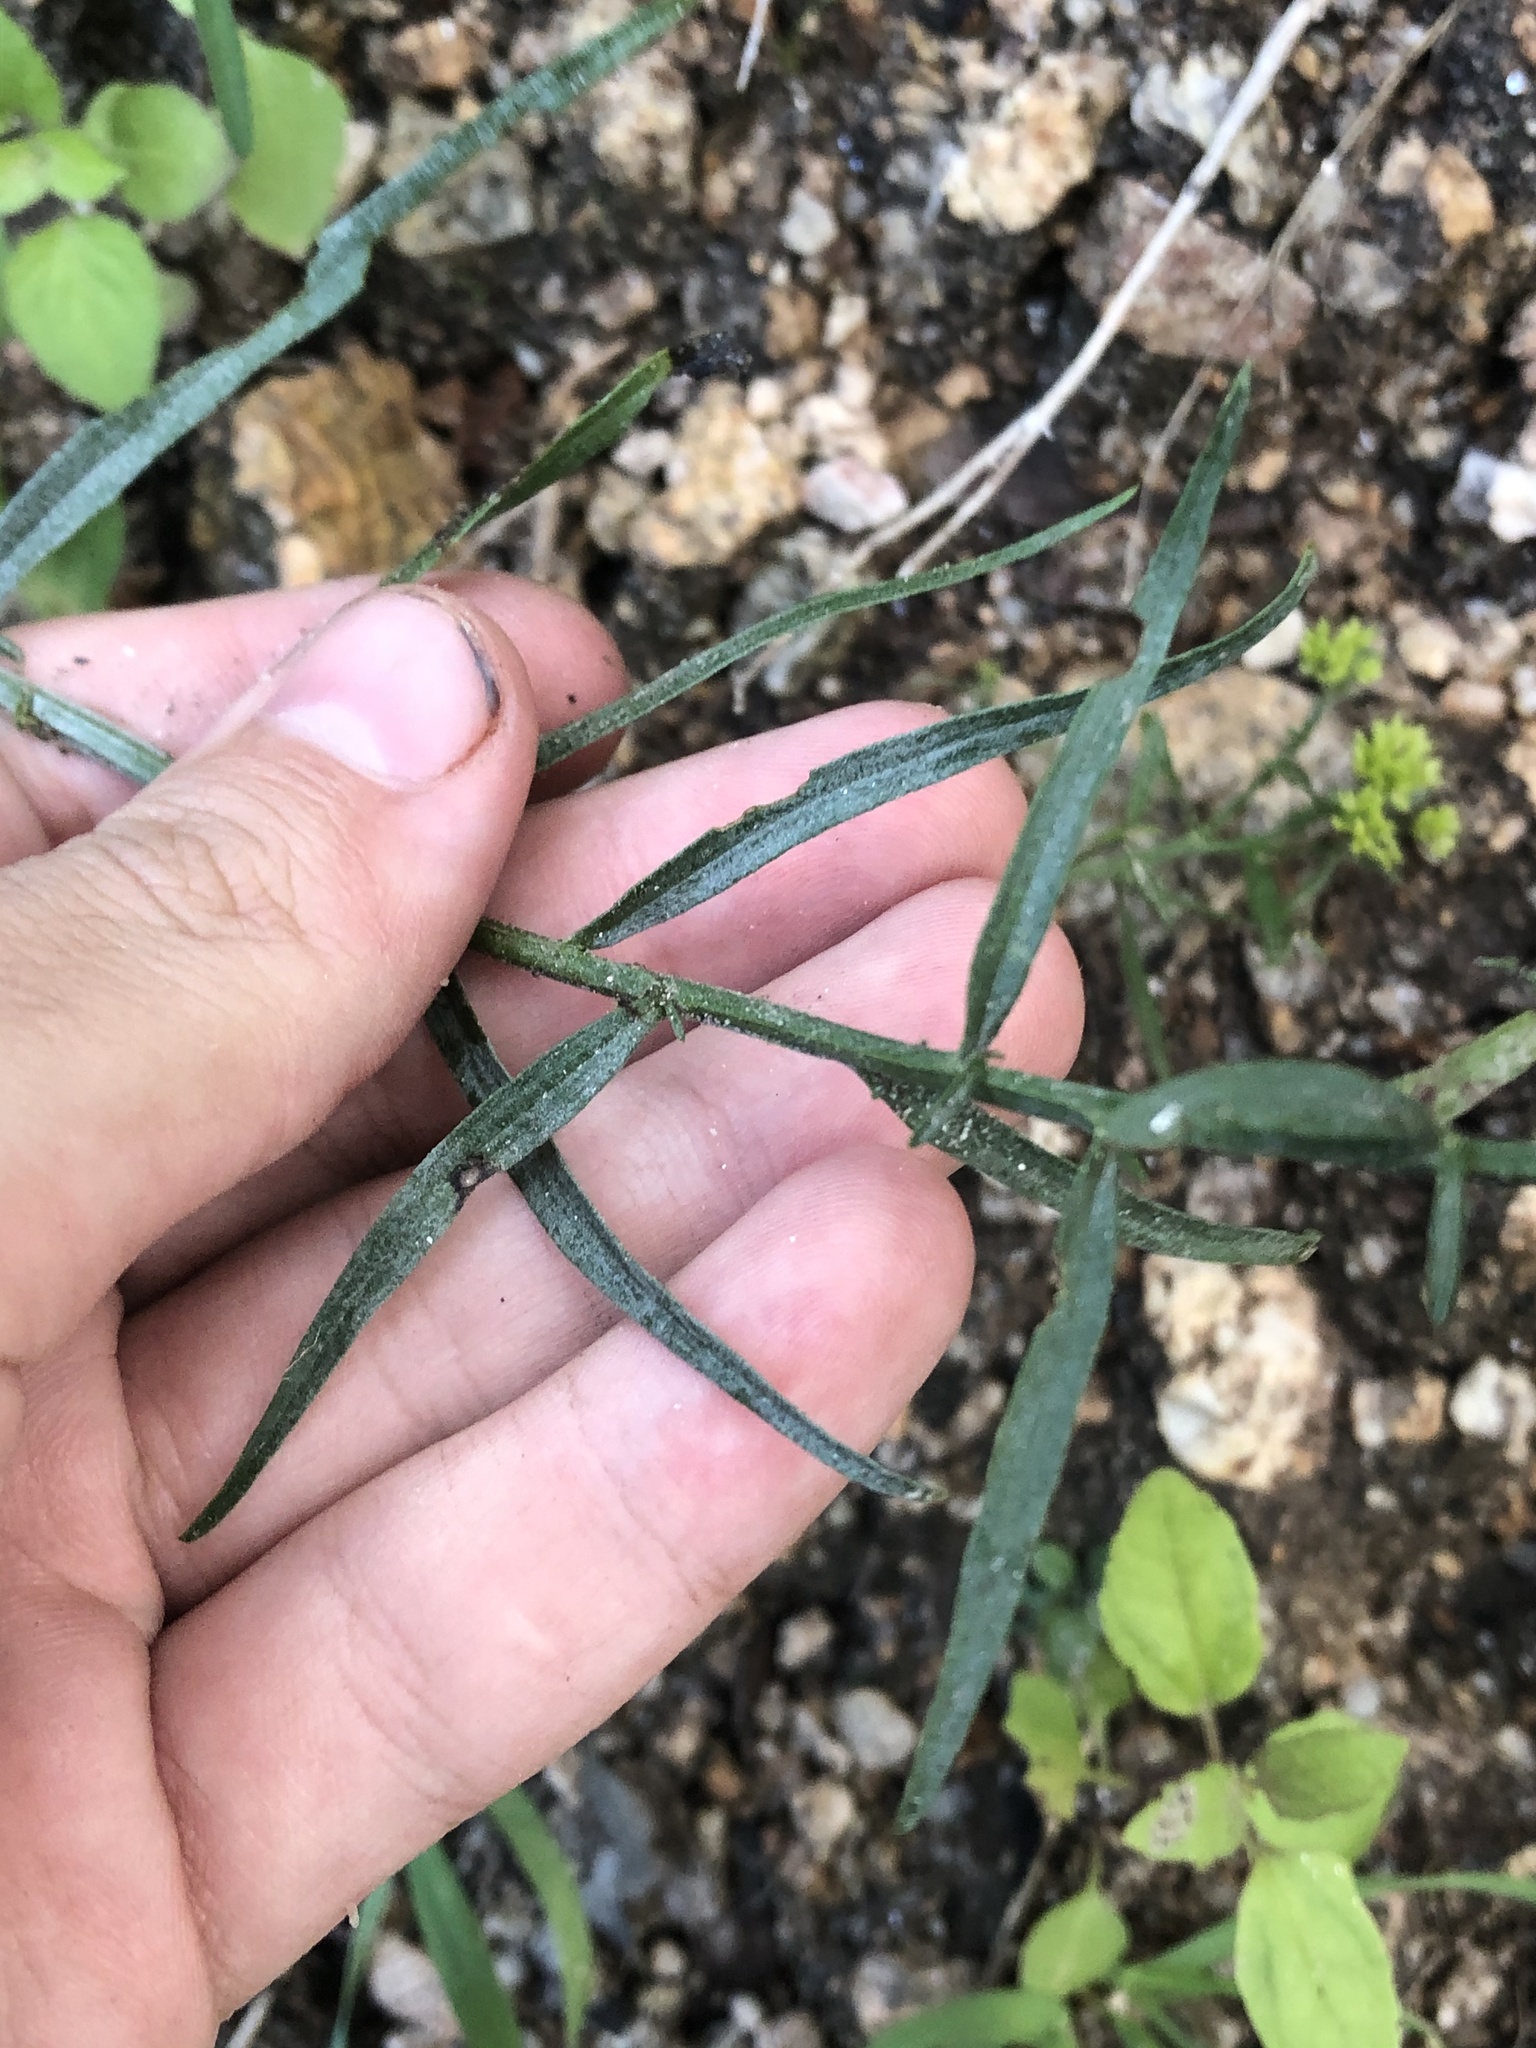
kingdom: Plantae
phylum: Tracheophyta
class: Magnoliopsida
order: Asterales
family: Asteraceae
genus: Gymnosperma
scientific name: Gymnosperma glutinosum
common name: Gumhead
